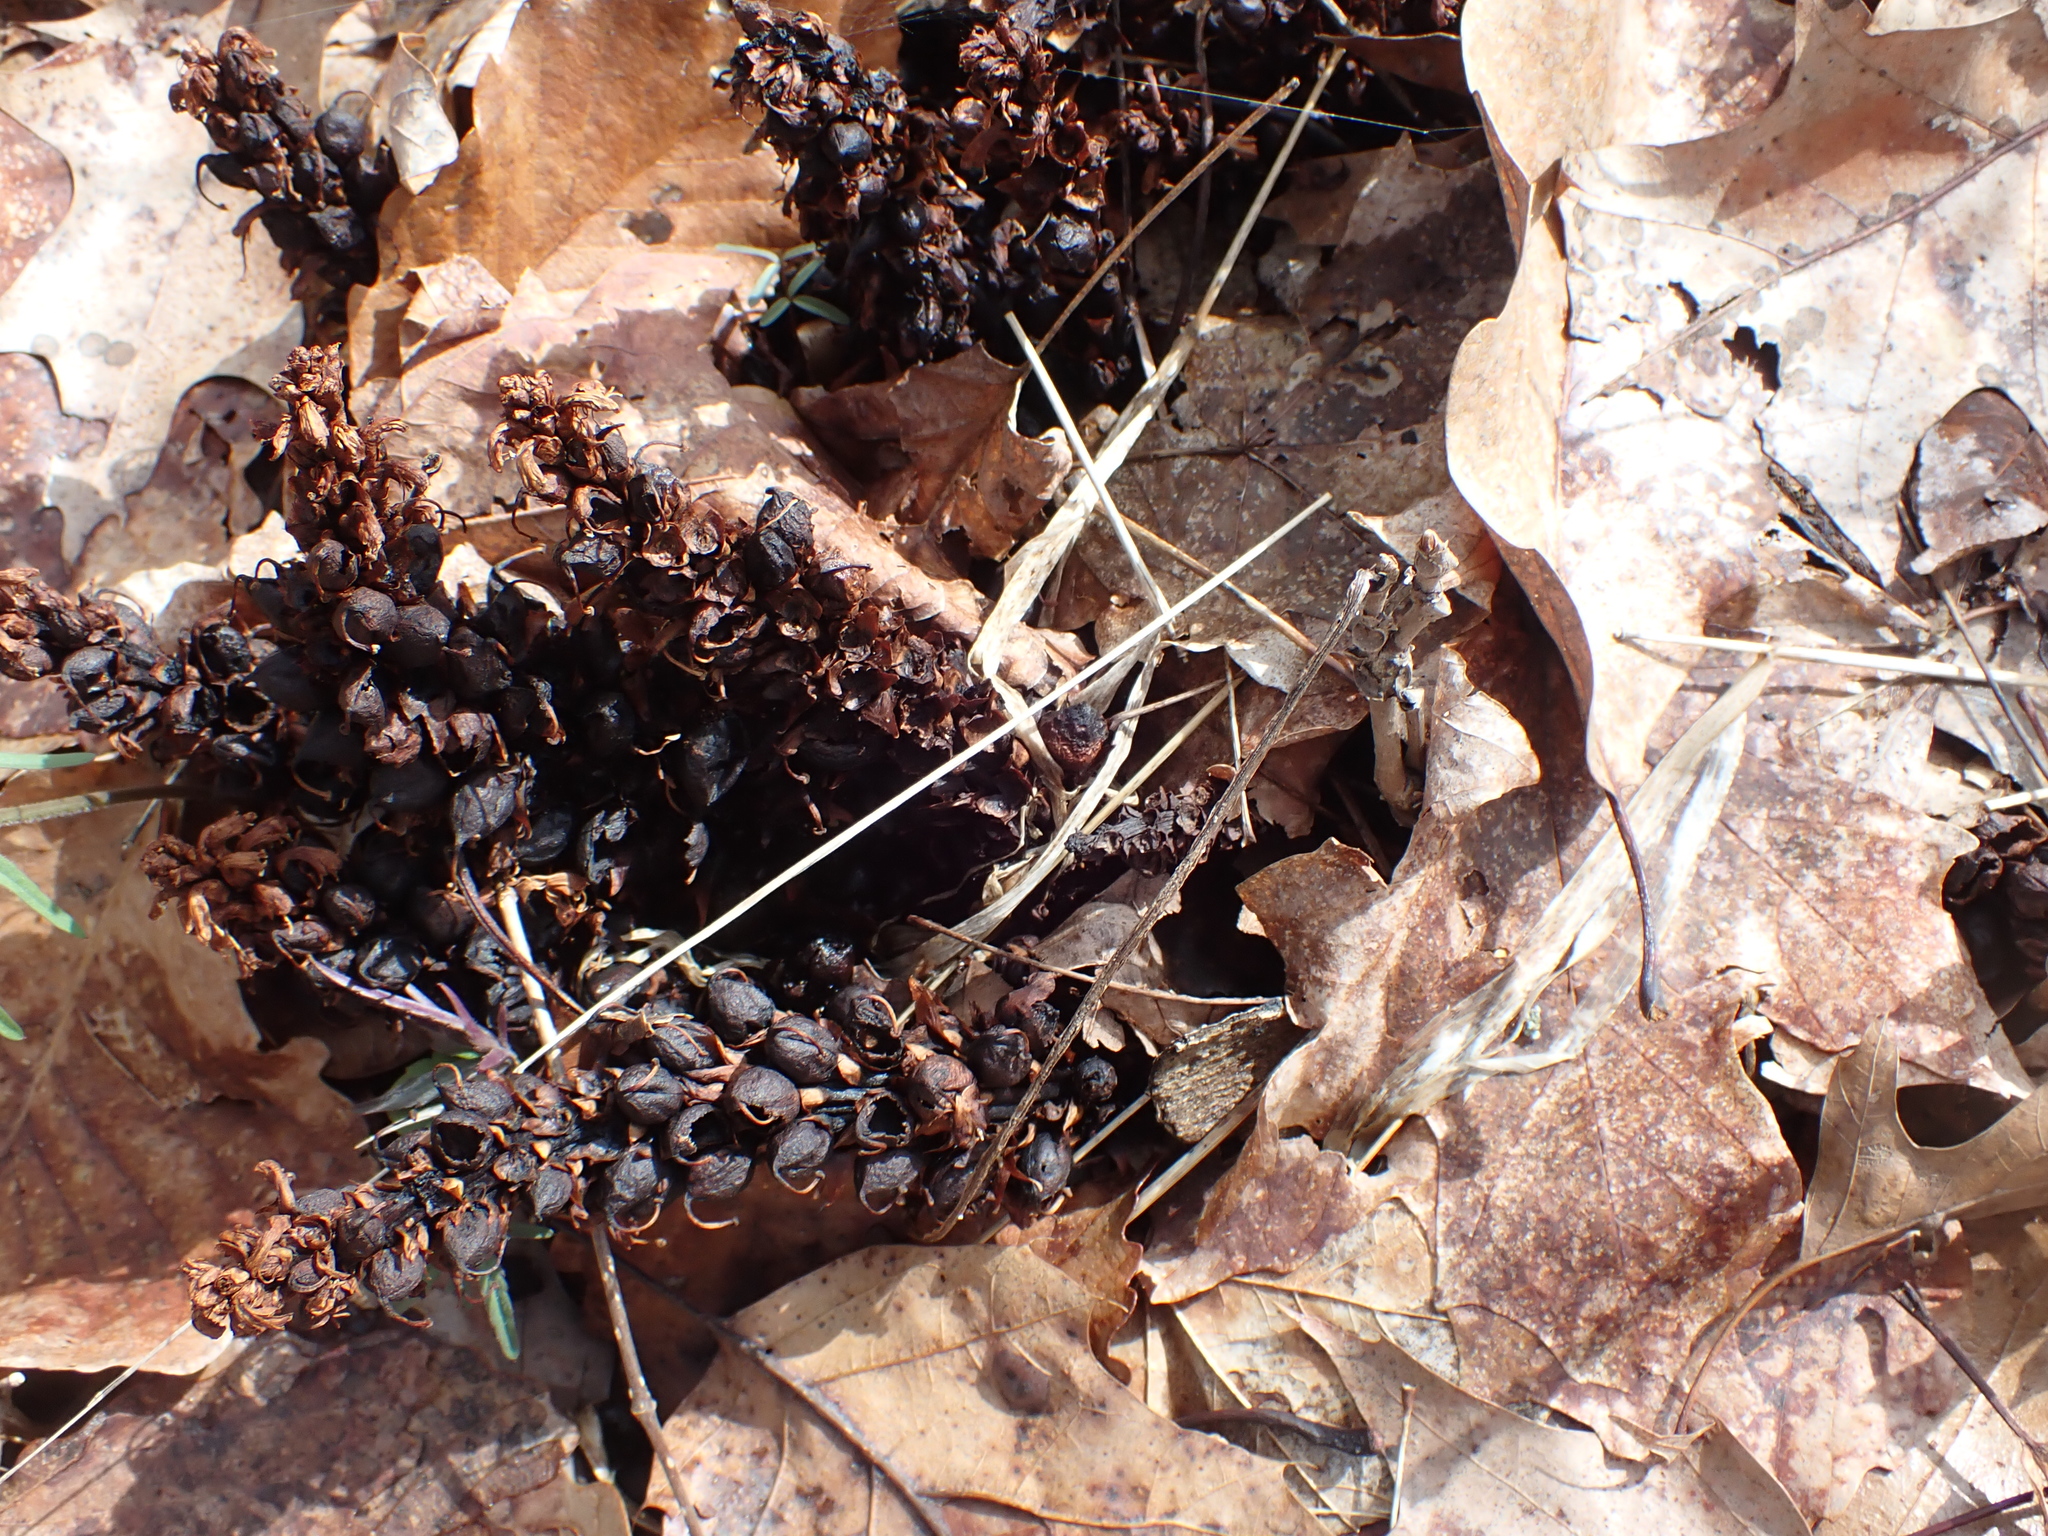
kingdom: Plantae
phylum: Tracheophyta
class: Magnoliopsida
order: Lamiales
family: Orobanchaceae
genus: Conopholis
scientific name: Conopholis americana
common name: American cancer-root
